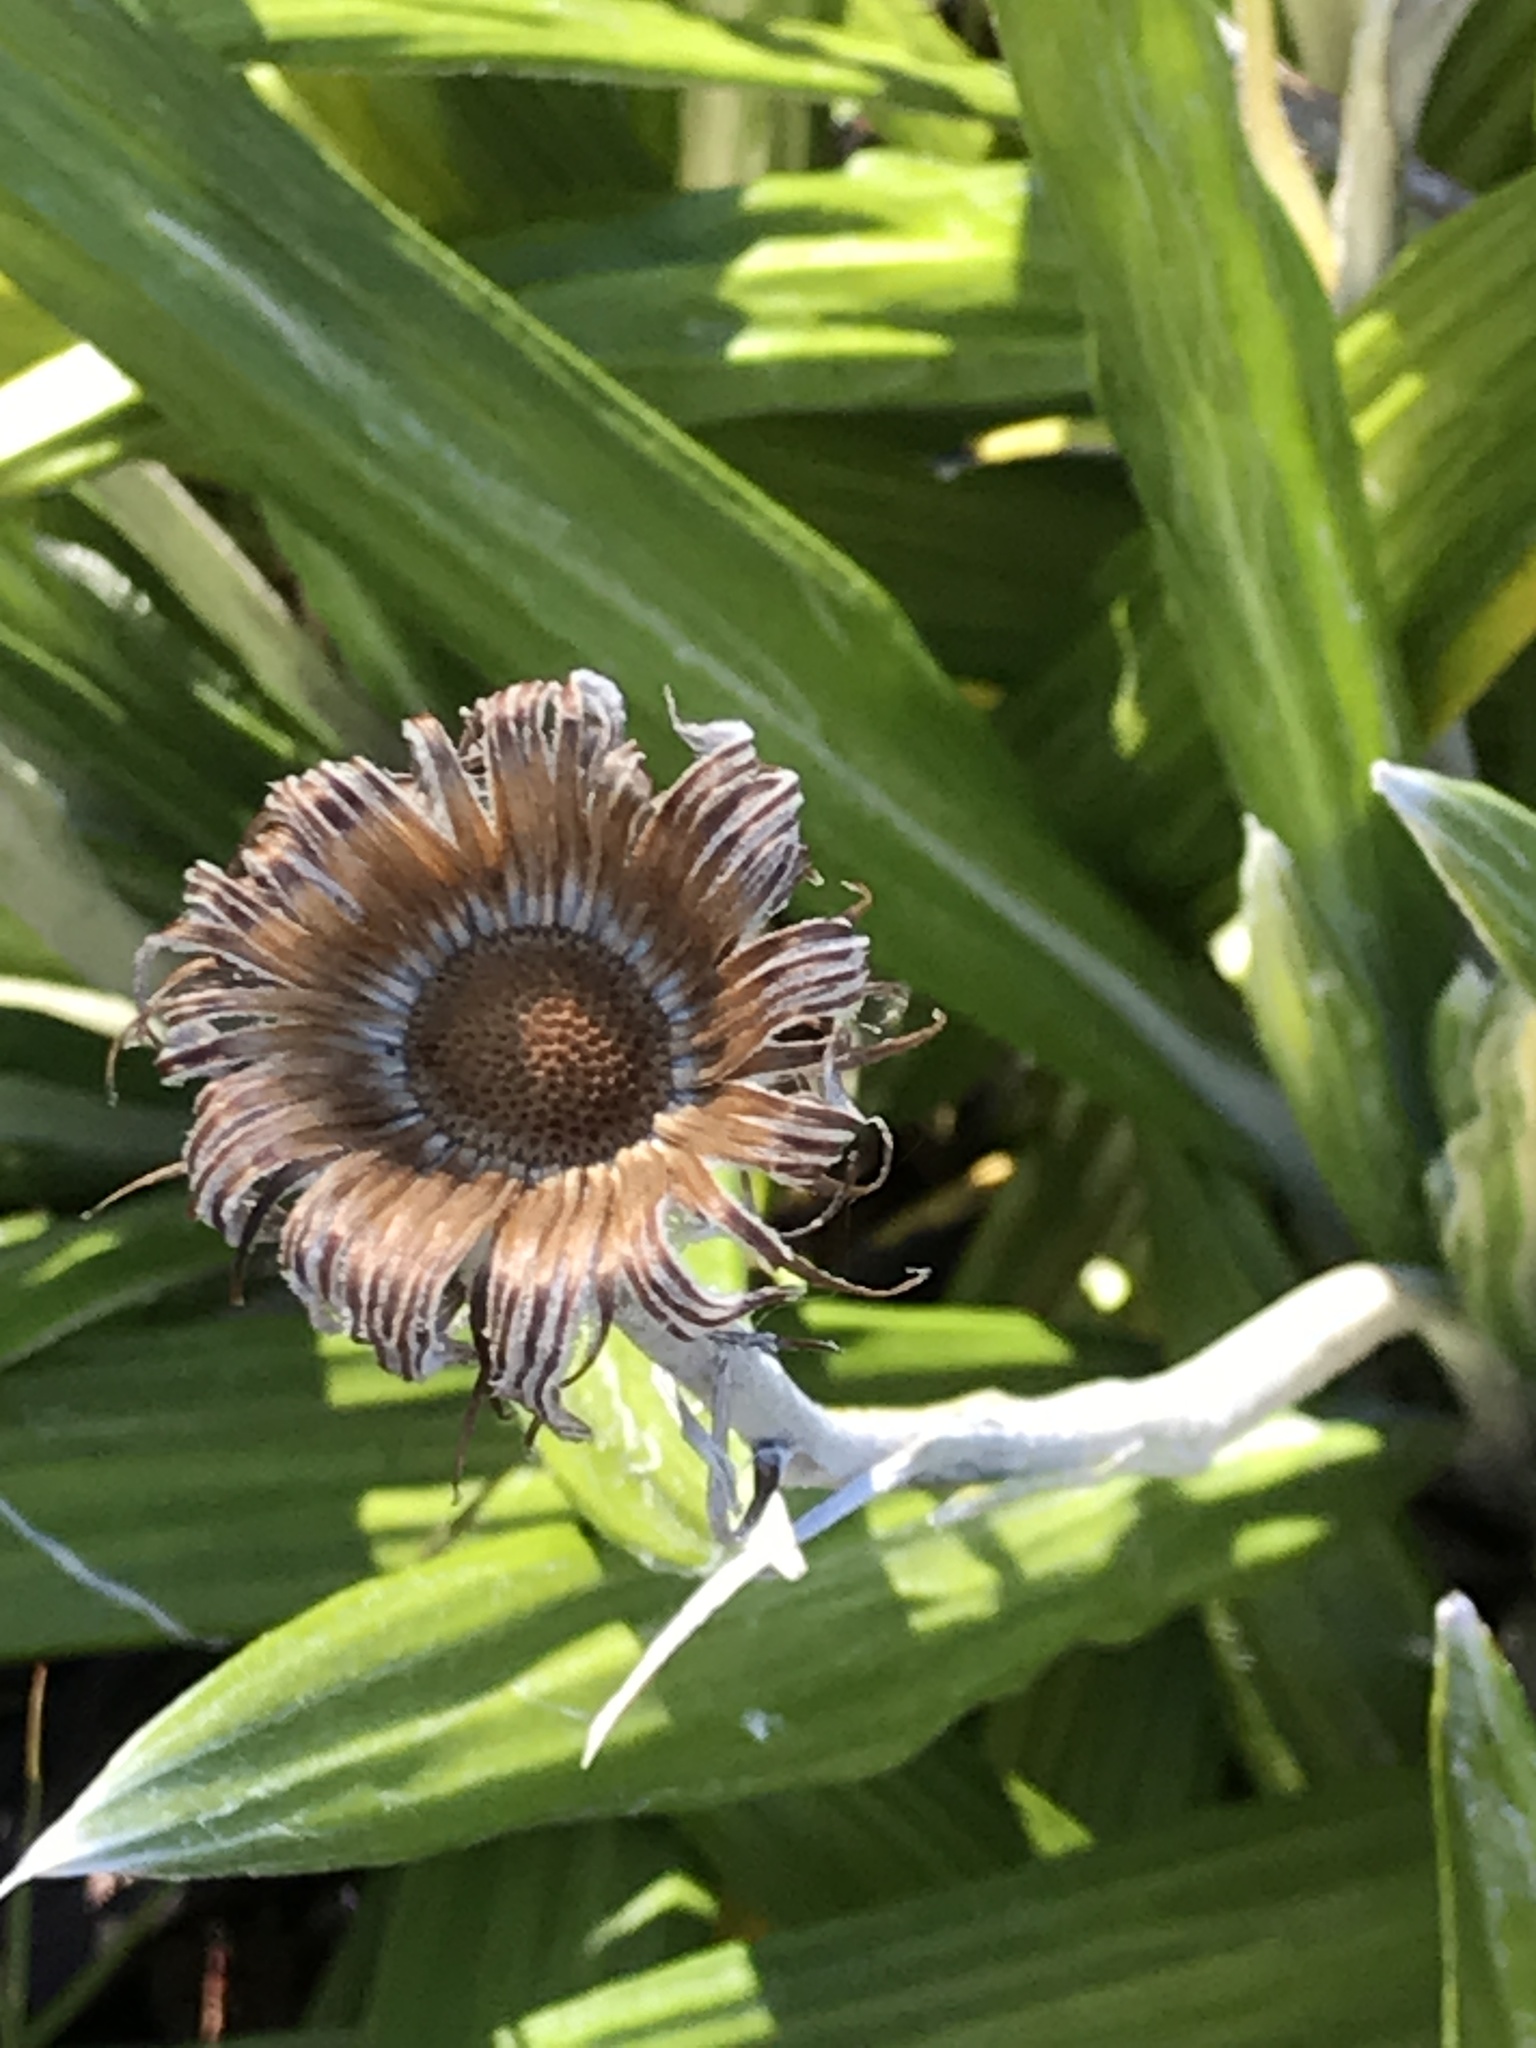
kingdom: Plantae
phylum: Tracheophyta
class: Magnoliopsida
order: Asterales
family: Asteraceae
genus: Celmisia
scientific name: Celmisia spectabilis
